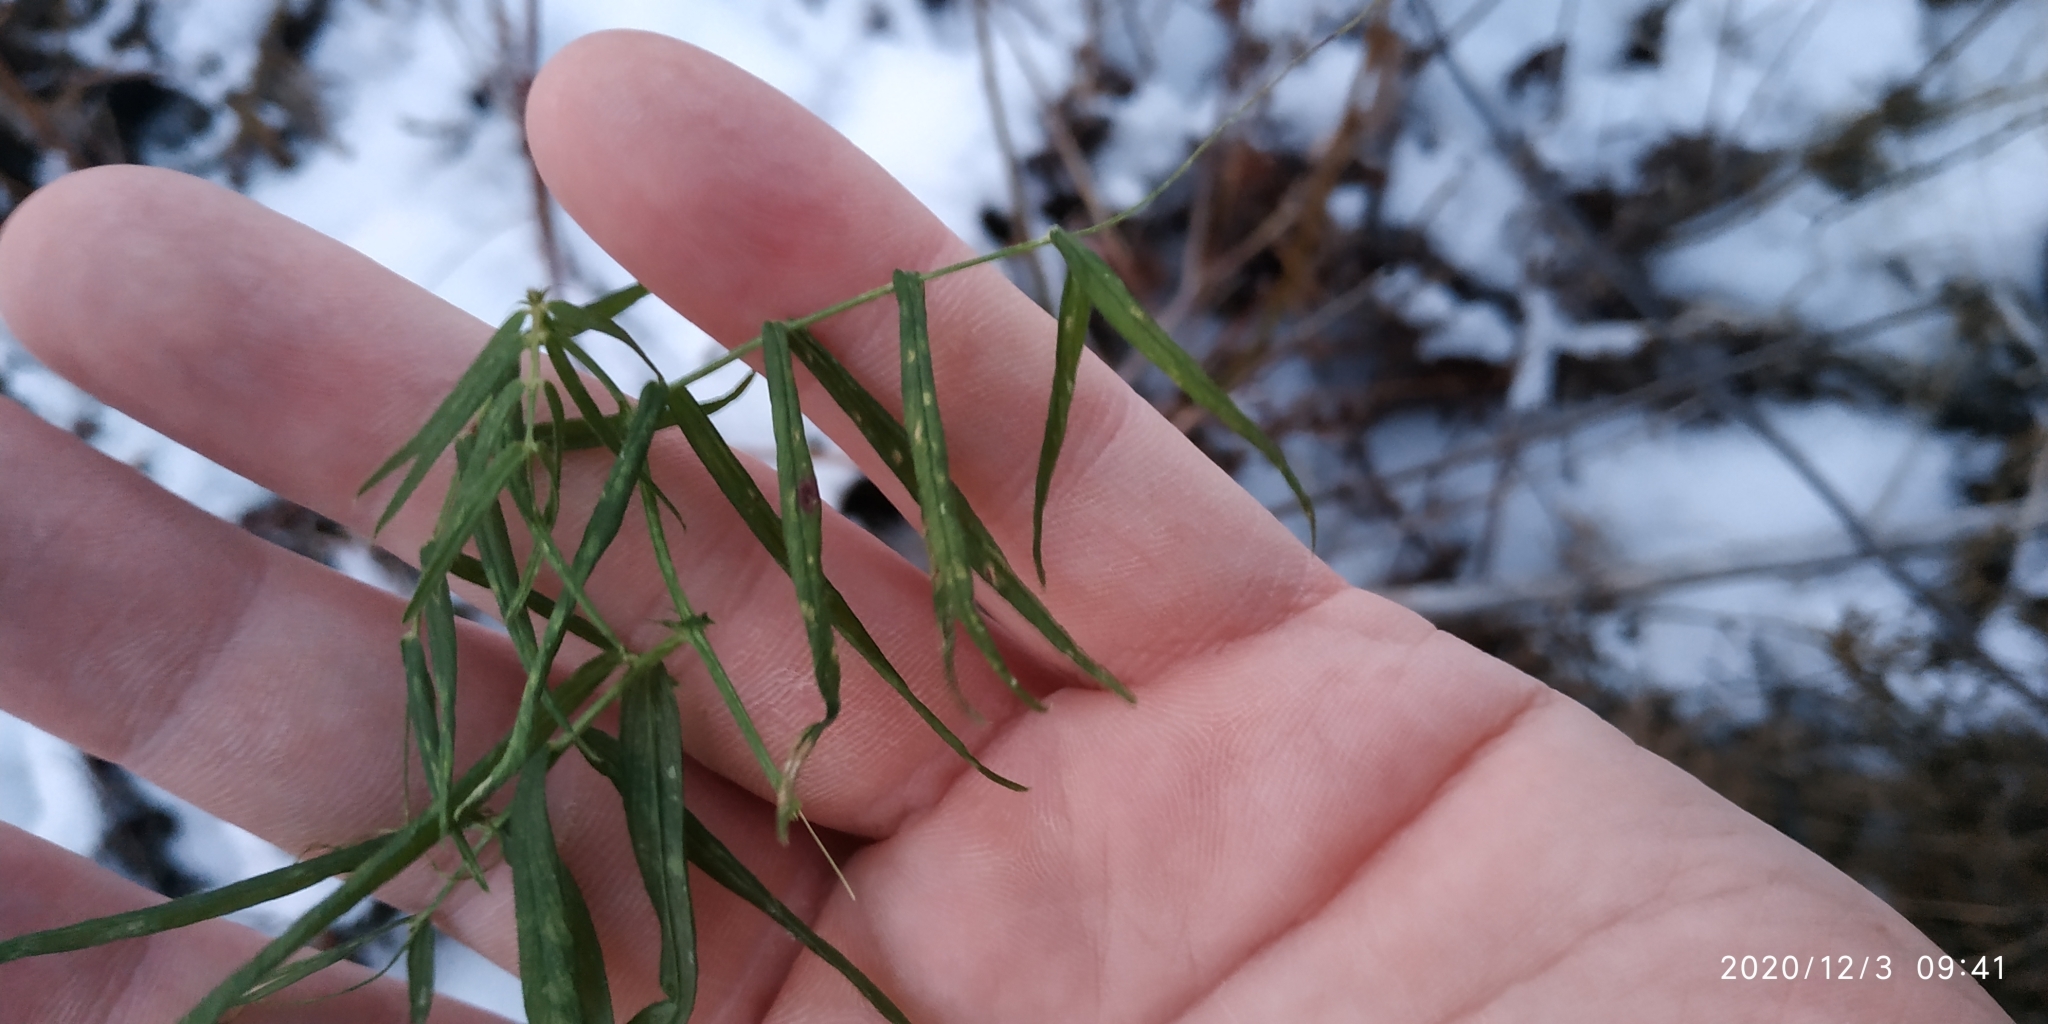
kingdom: Plantae
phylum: Tracheophyta
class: Magnoliopsida
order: Fabales
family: Fabaceae
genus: Lathyrus
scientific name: Lathyrus palustris
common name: Marsh pea
